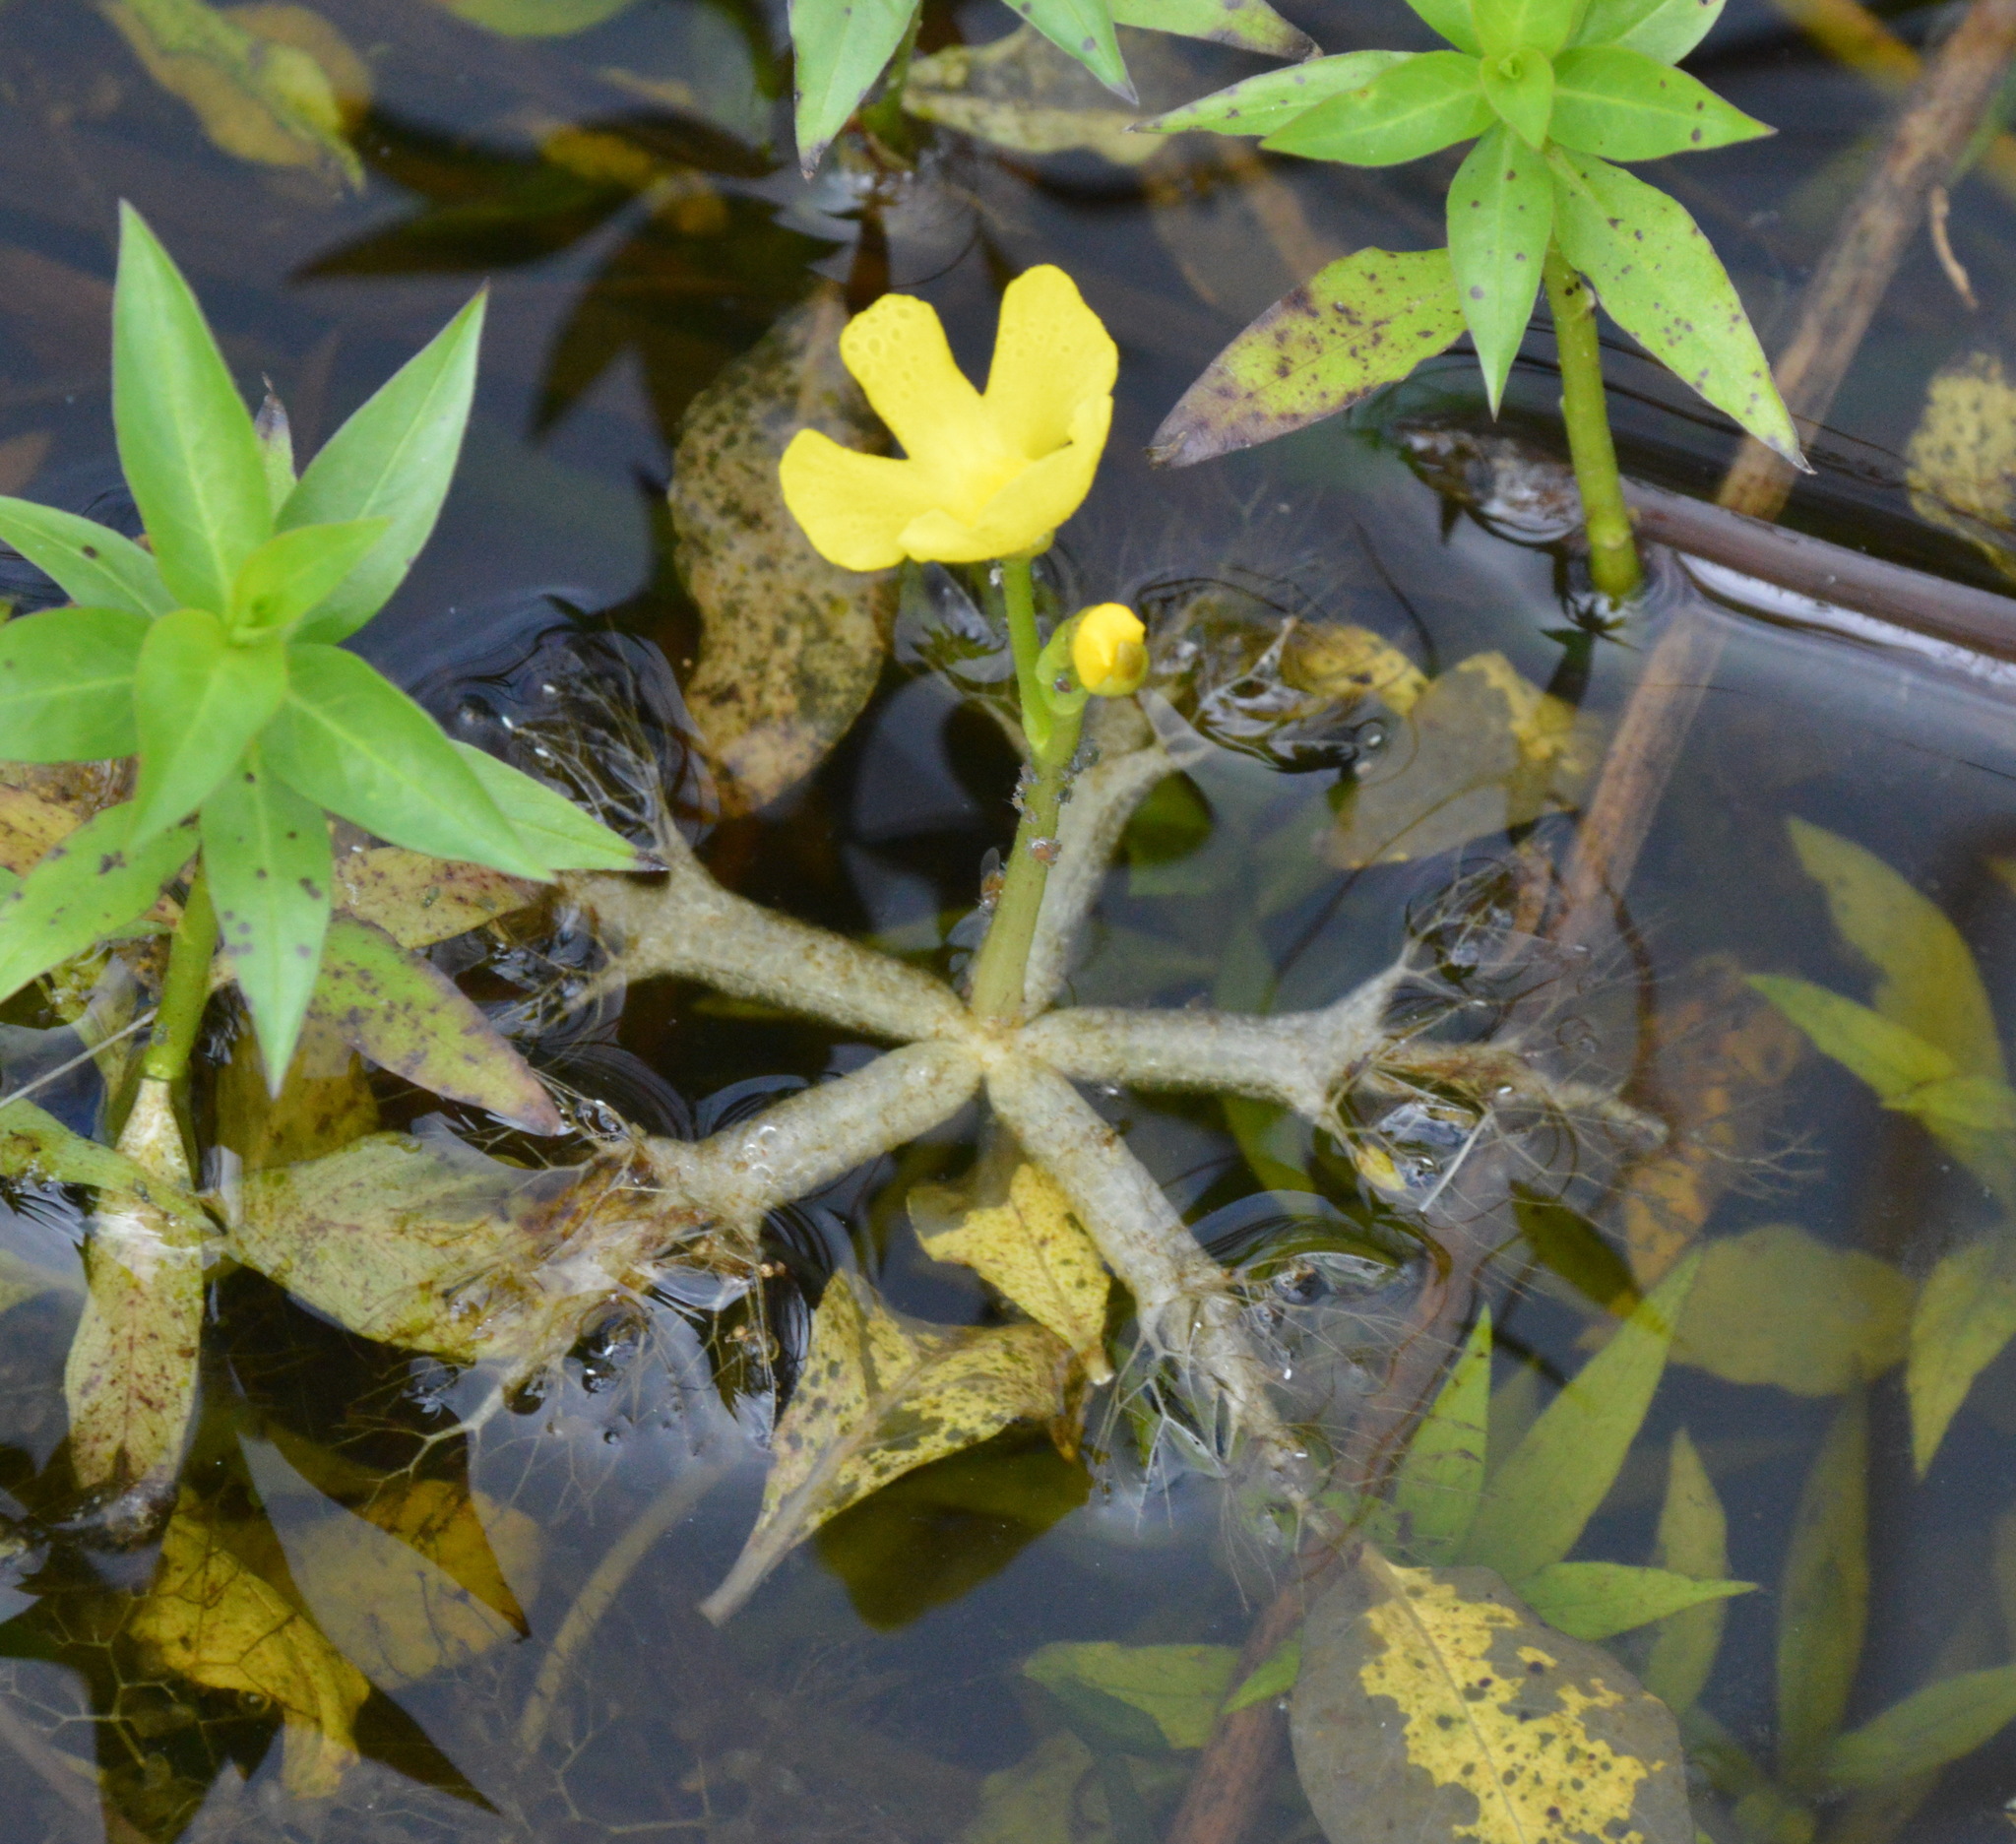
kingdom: Plantae
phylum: Tracheophyta
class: Magnoliopsida
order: Lamiales
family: Lentibulariaceae
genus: Utricularia
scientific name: Utricularia radiata
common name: Floating bladderwort
